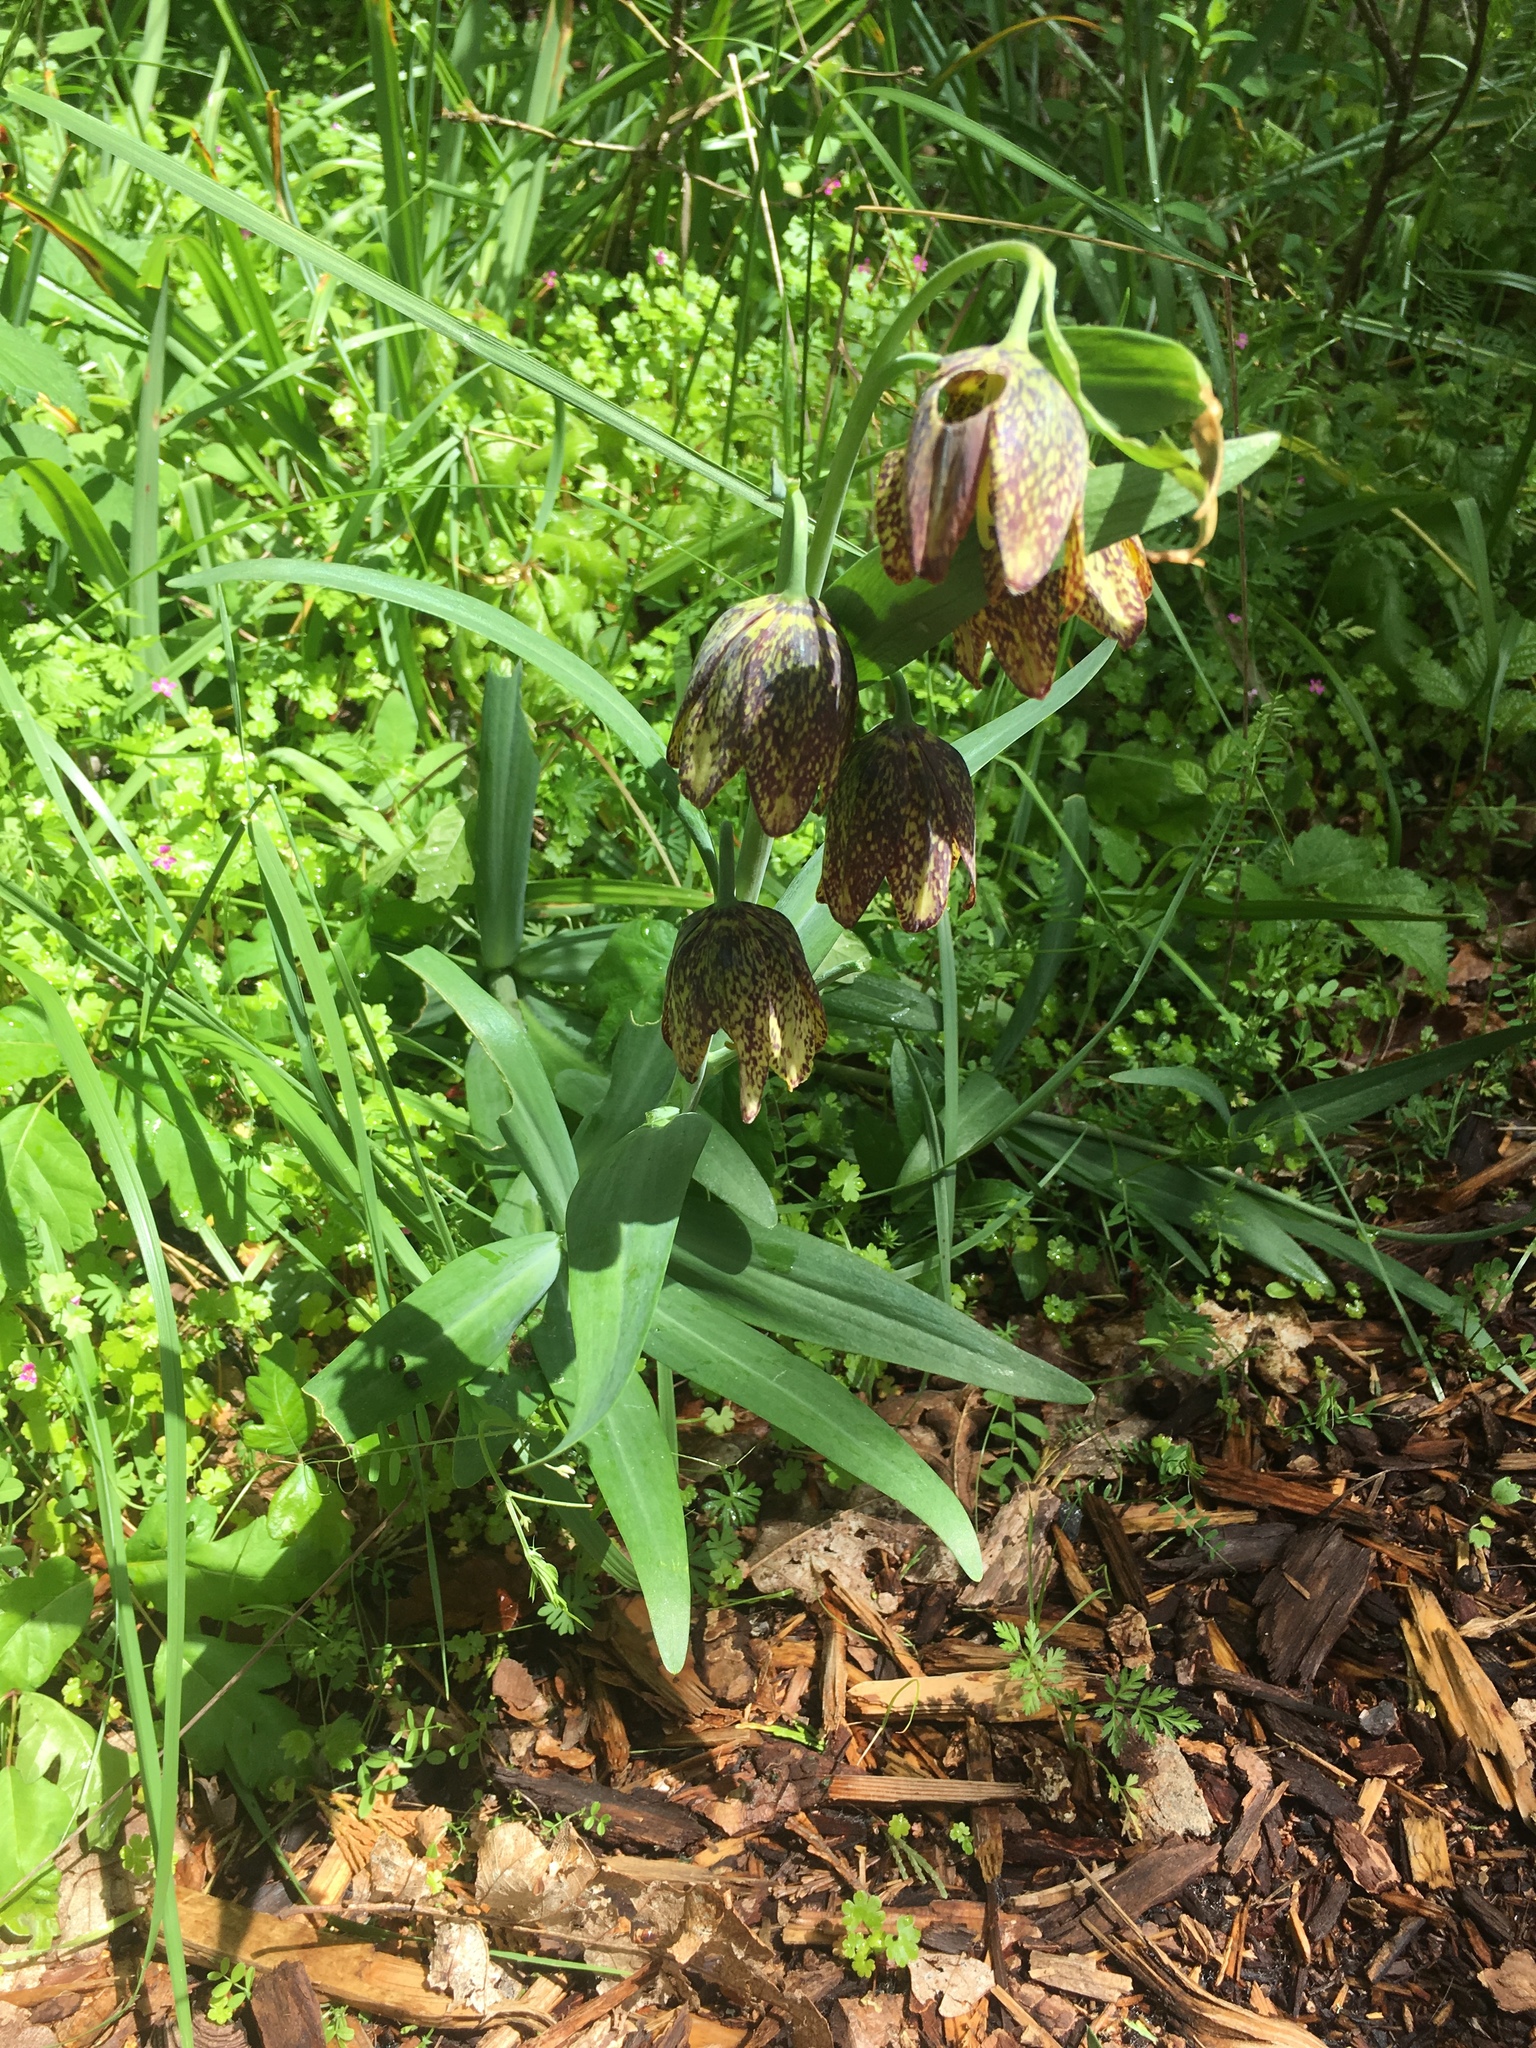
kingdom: Plantae
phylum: Tracheophyta
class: Liliopsida
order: Liliales
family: Liliaceae
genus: Fritillaria
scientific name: Fritillaria affinis
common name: Ojai fritillary
